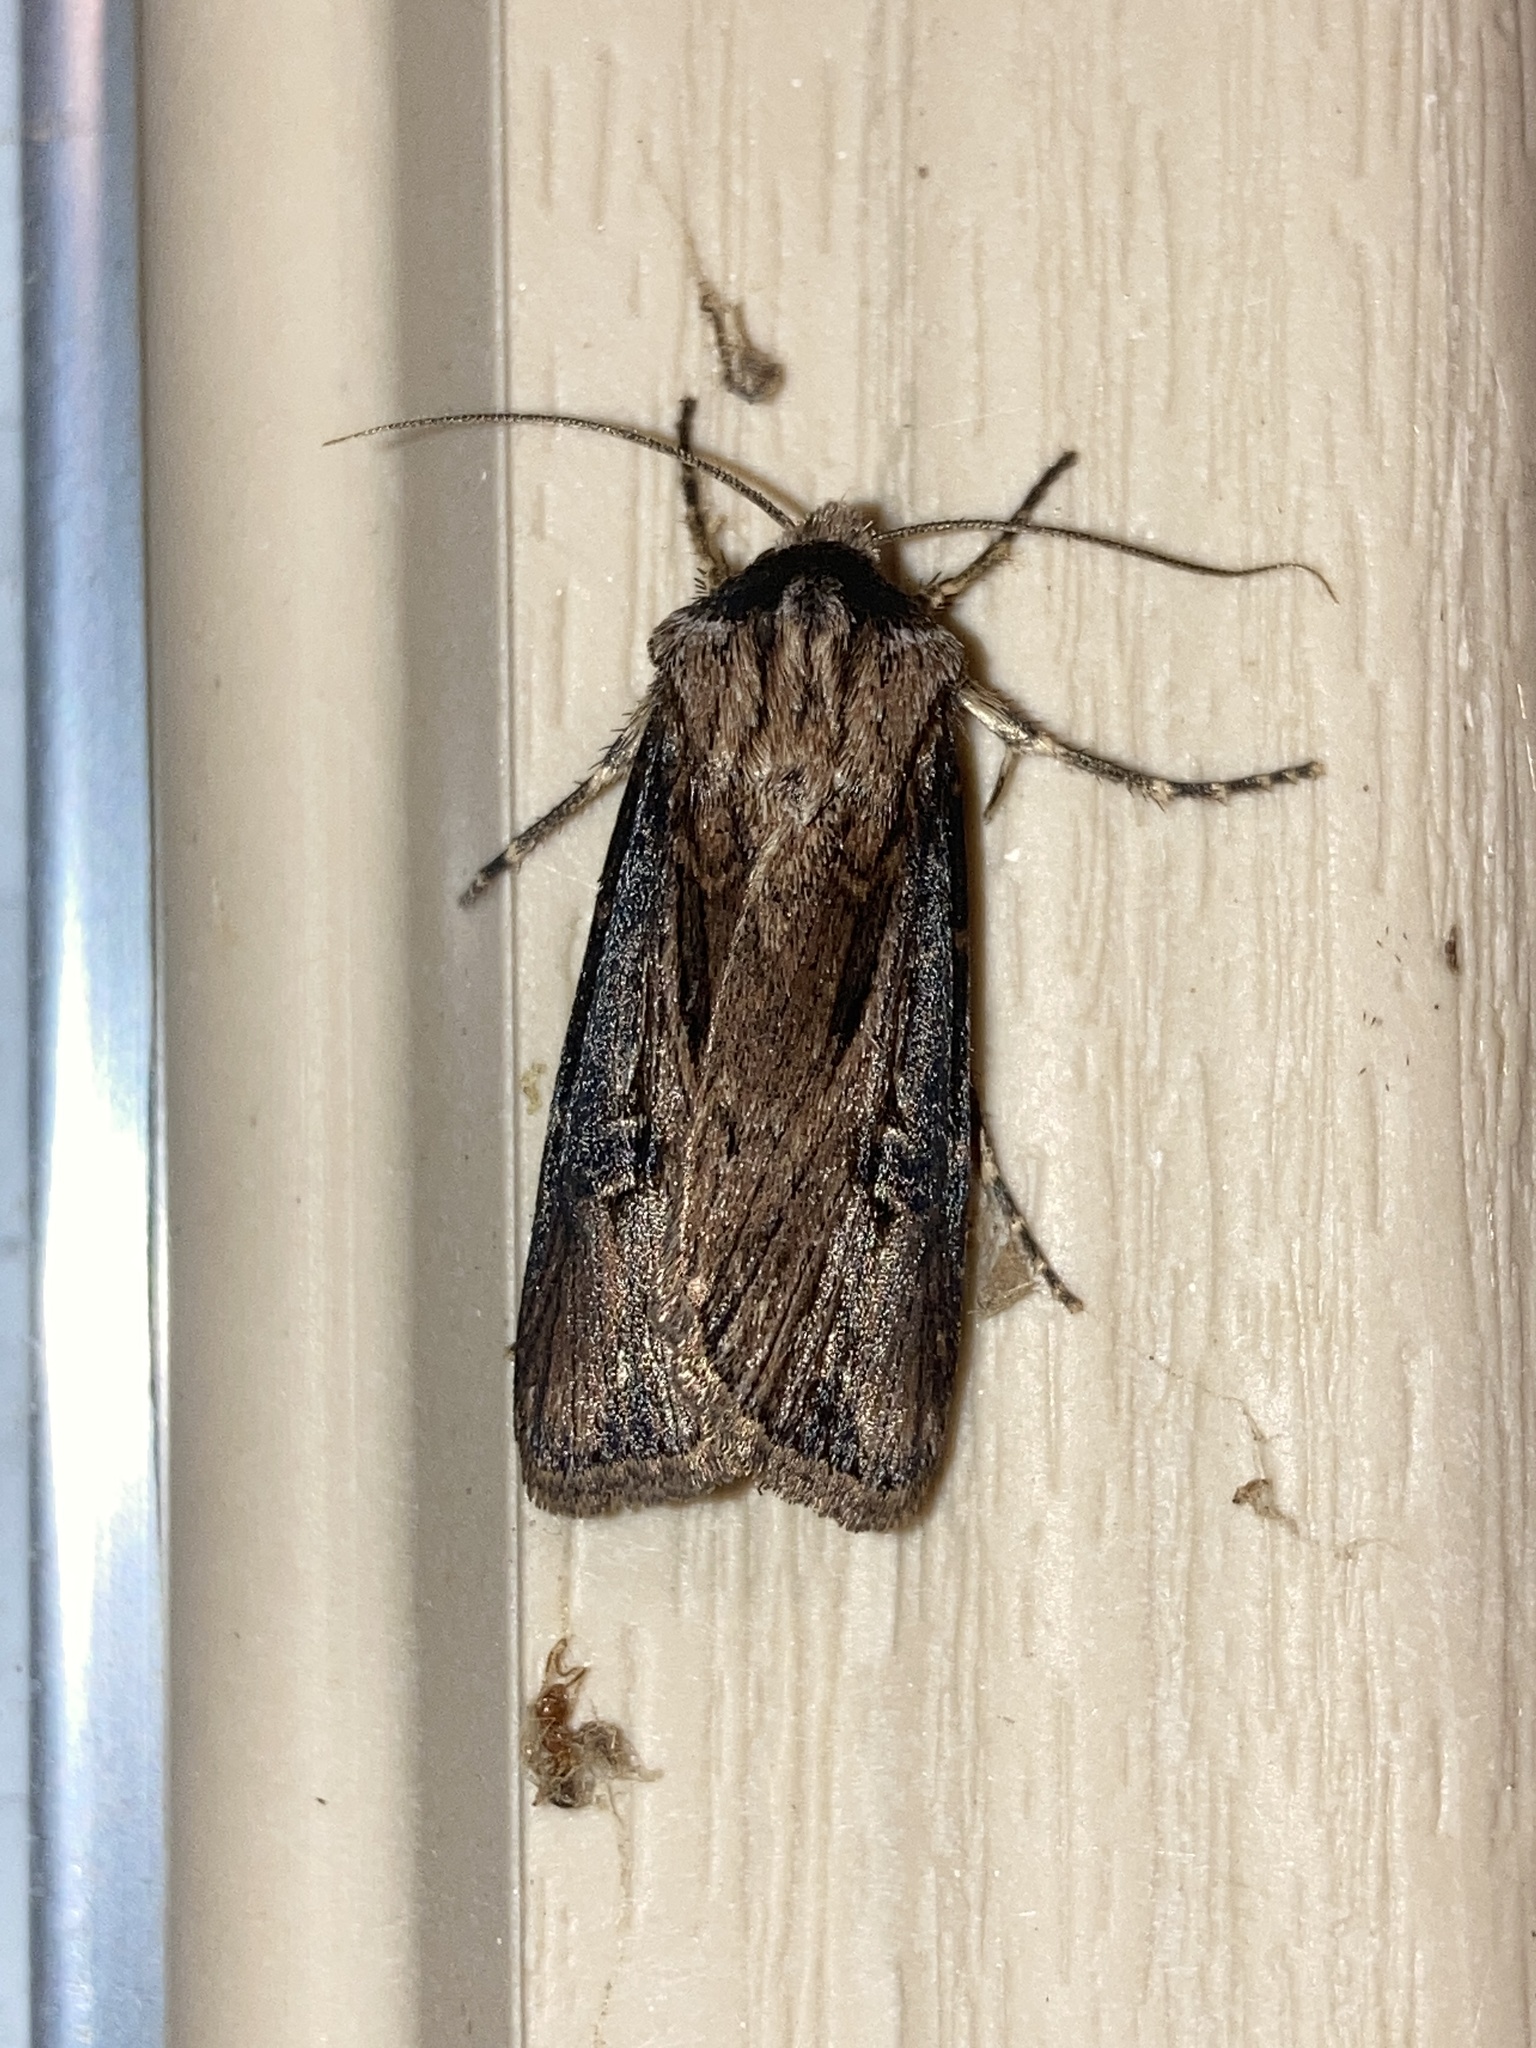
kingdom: Animalia
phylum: Arthropoda
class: Insecta
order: Lepidoptera
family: Noctuidae
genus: Agrotis
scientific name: Agrotis venerabilis
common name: Venerable dart
